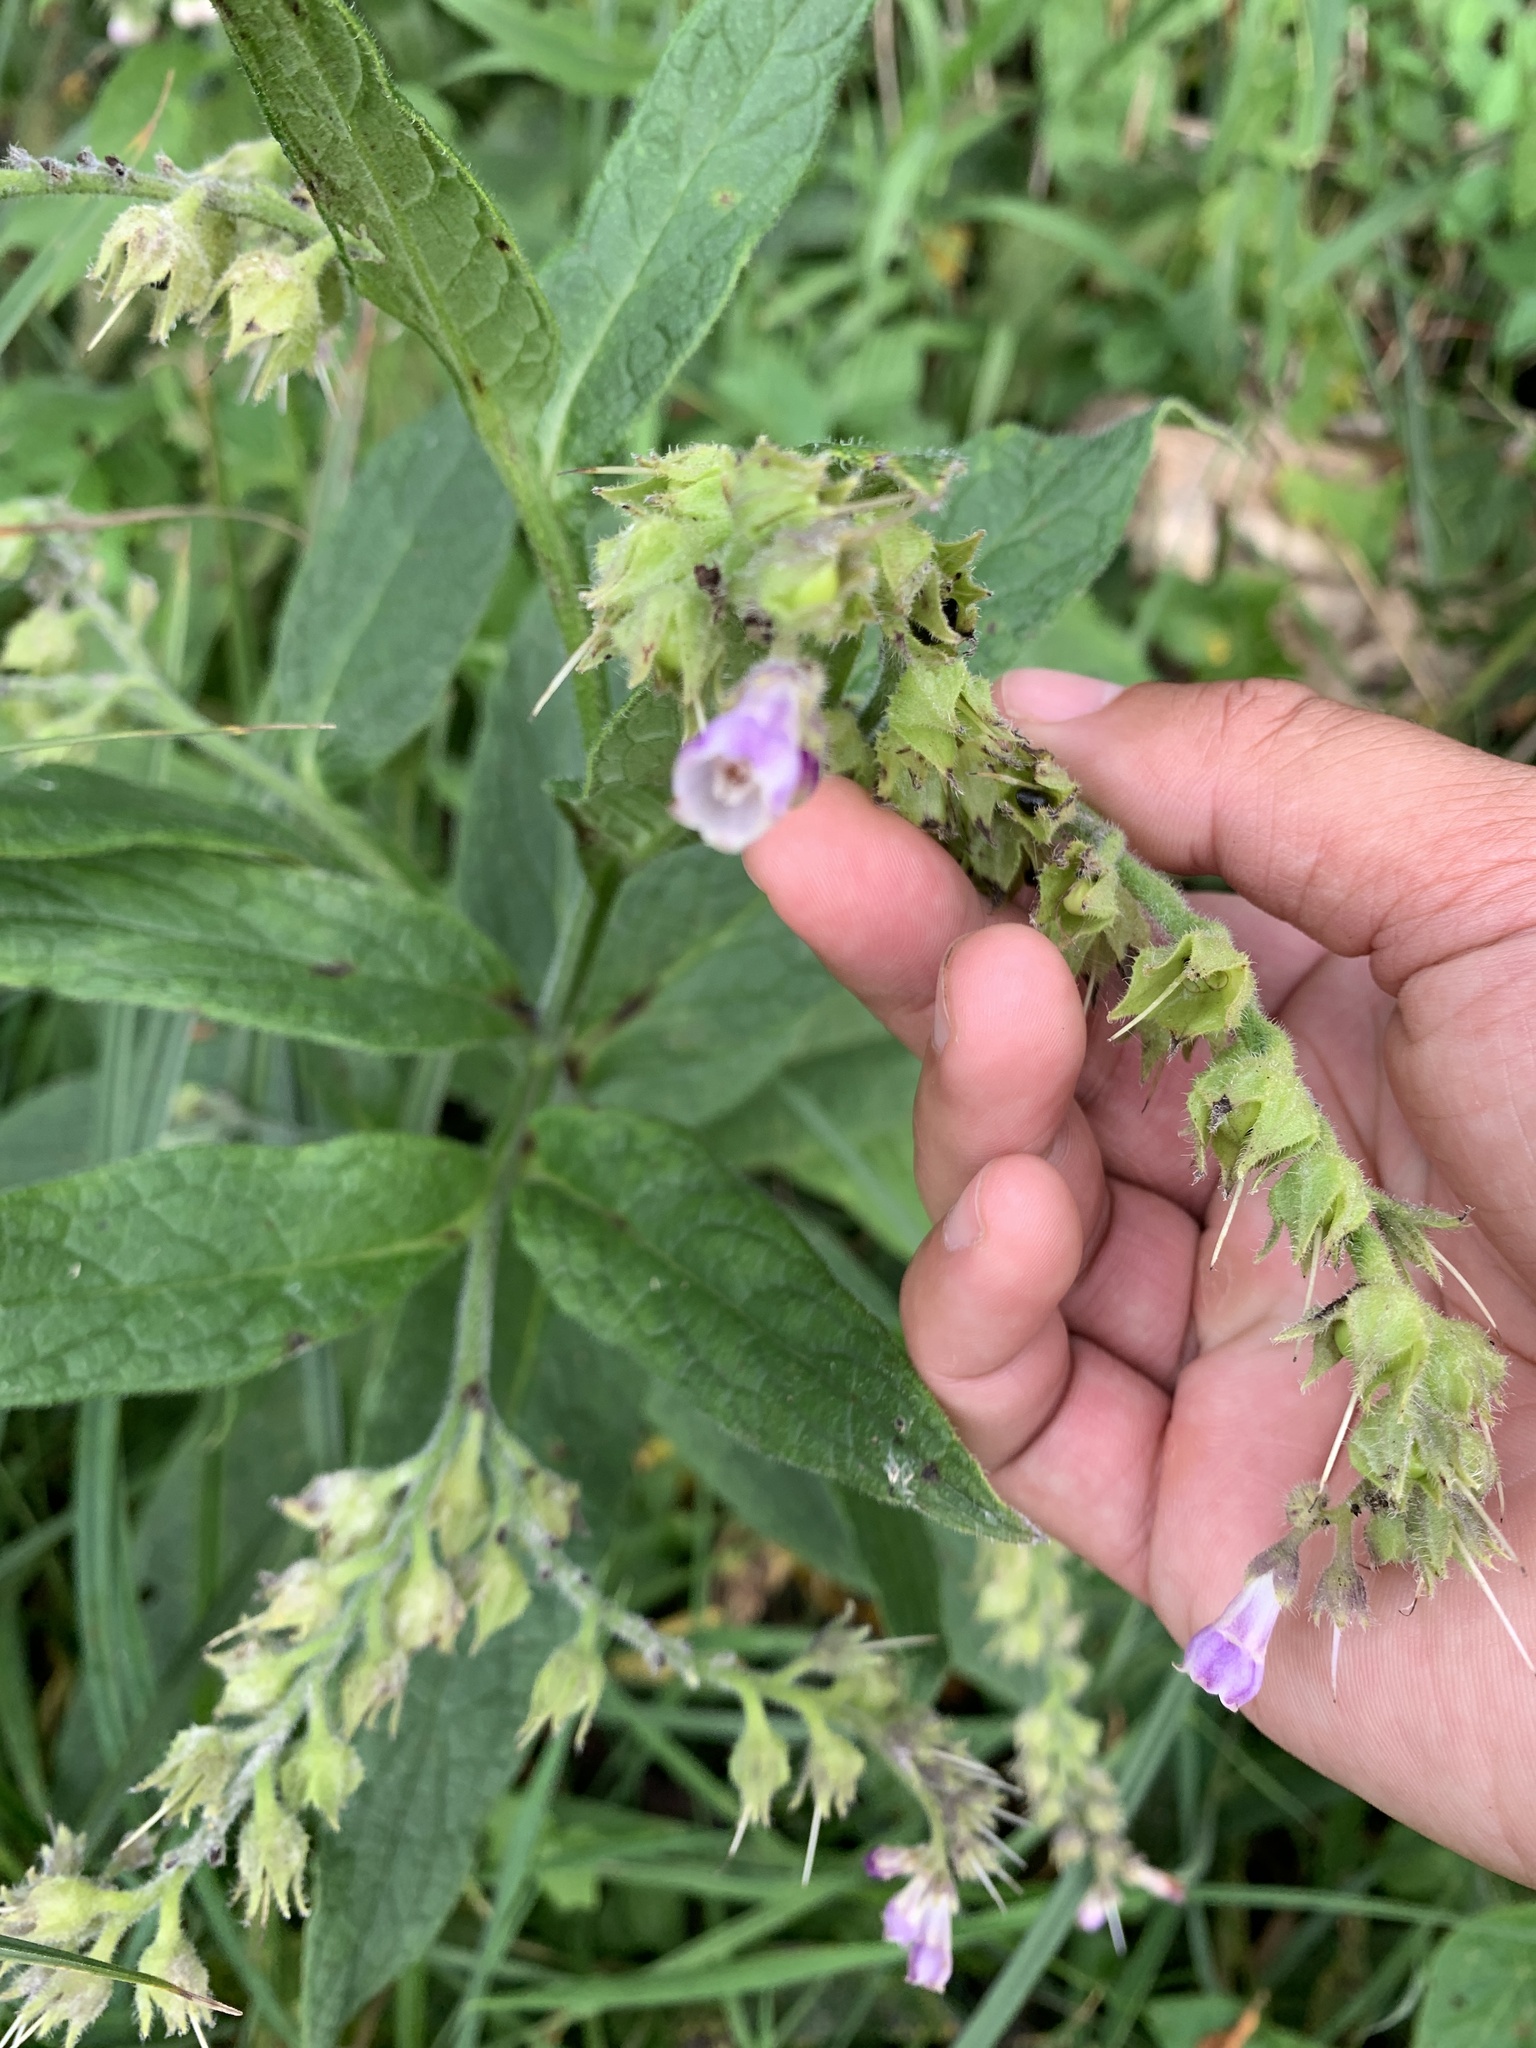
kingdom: Plantae
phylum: Tracheophyta
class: Magnoliopsida
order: Boraginales
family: Boraginaceae
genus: Symphytum
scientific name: Symphytum officinale
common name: Common comfrey
